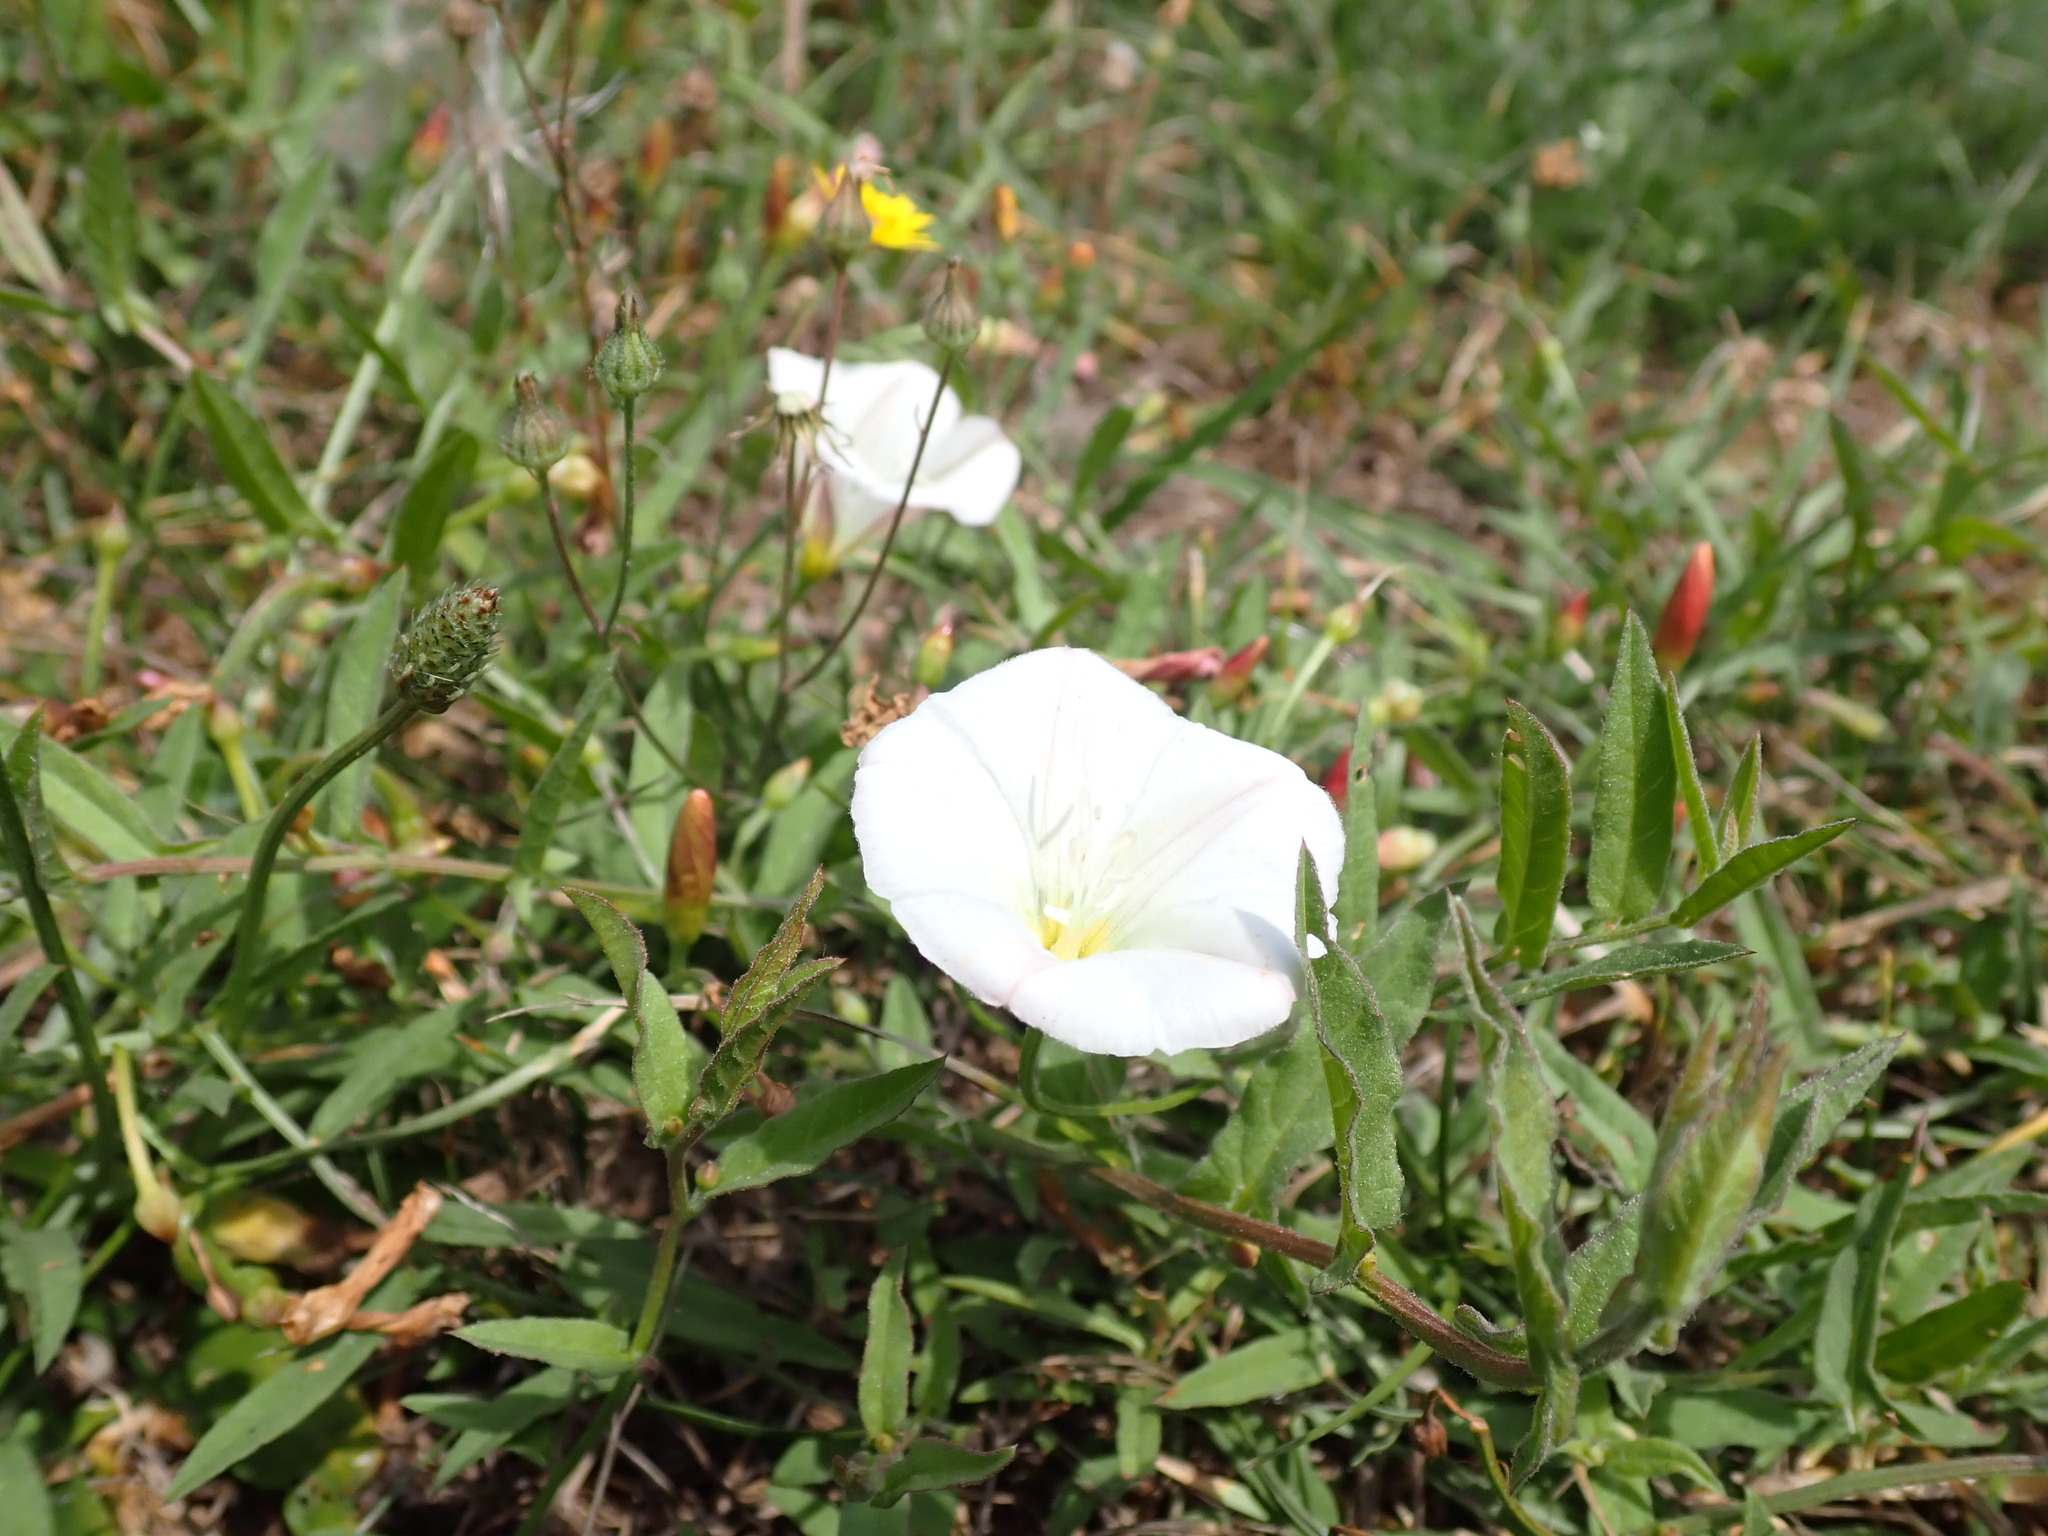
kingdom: Plantae
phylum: Tracheophyta
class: Magnoliopsida
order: Solanales
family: Convolvulaceae
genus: Convolvulus
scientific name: Convolvulus arvensis
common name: Field bindweed
